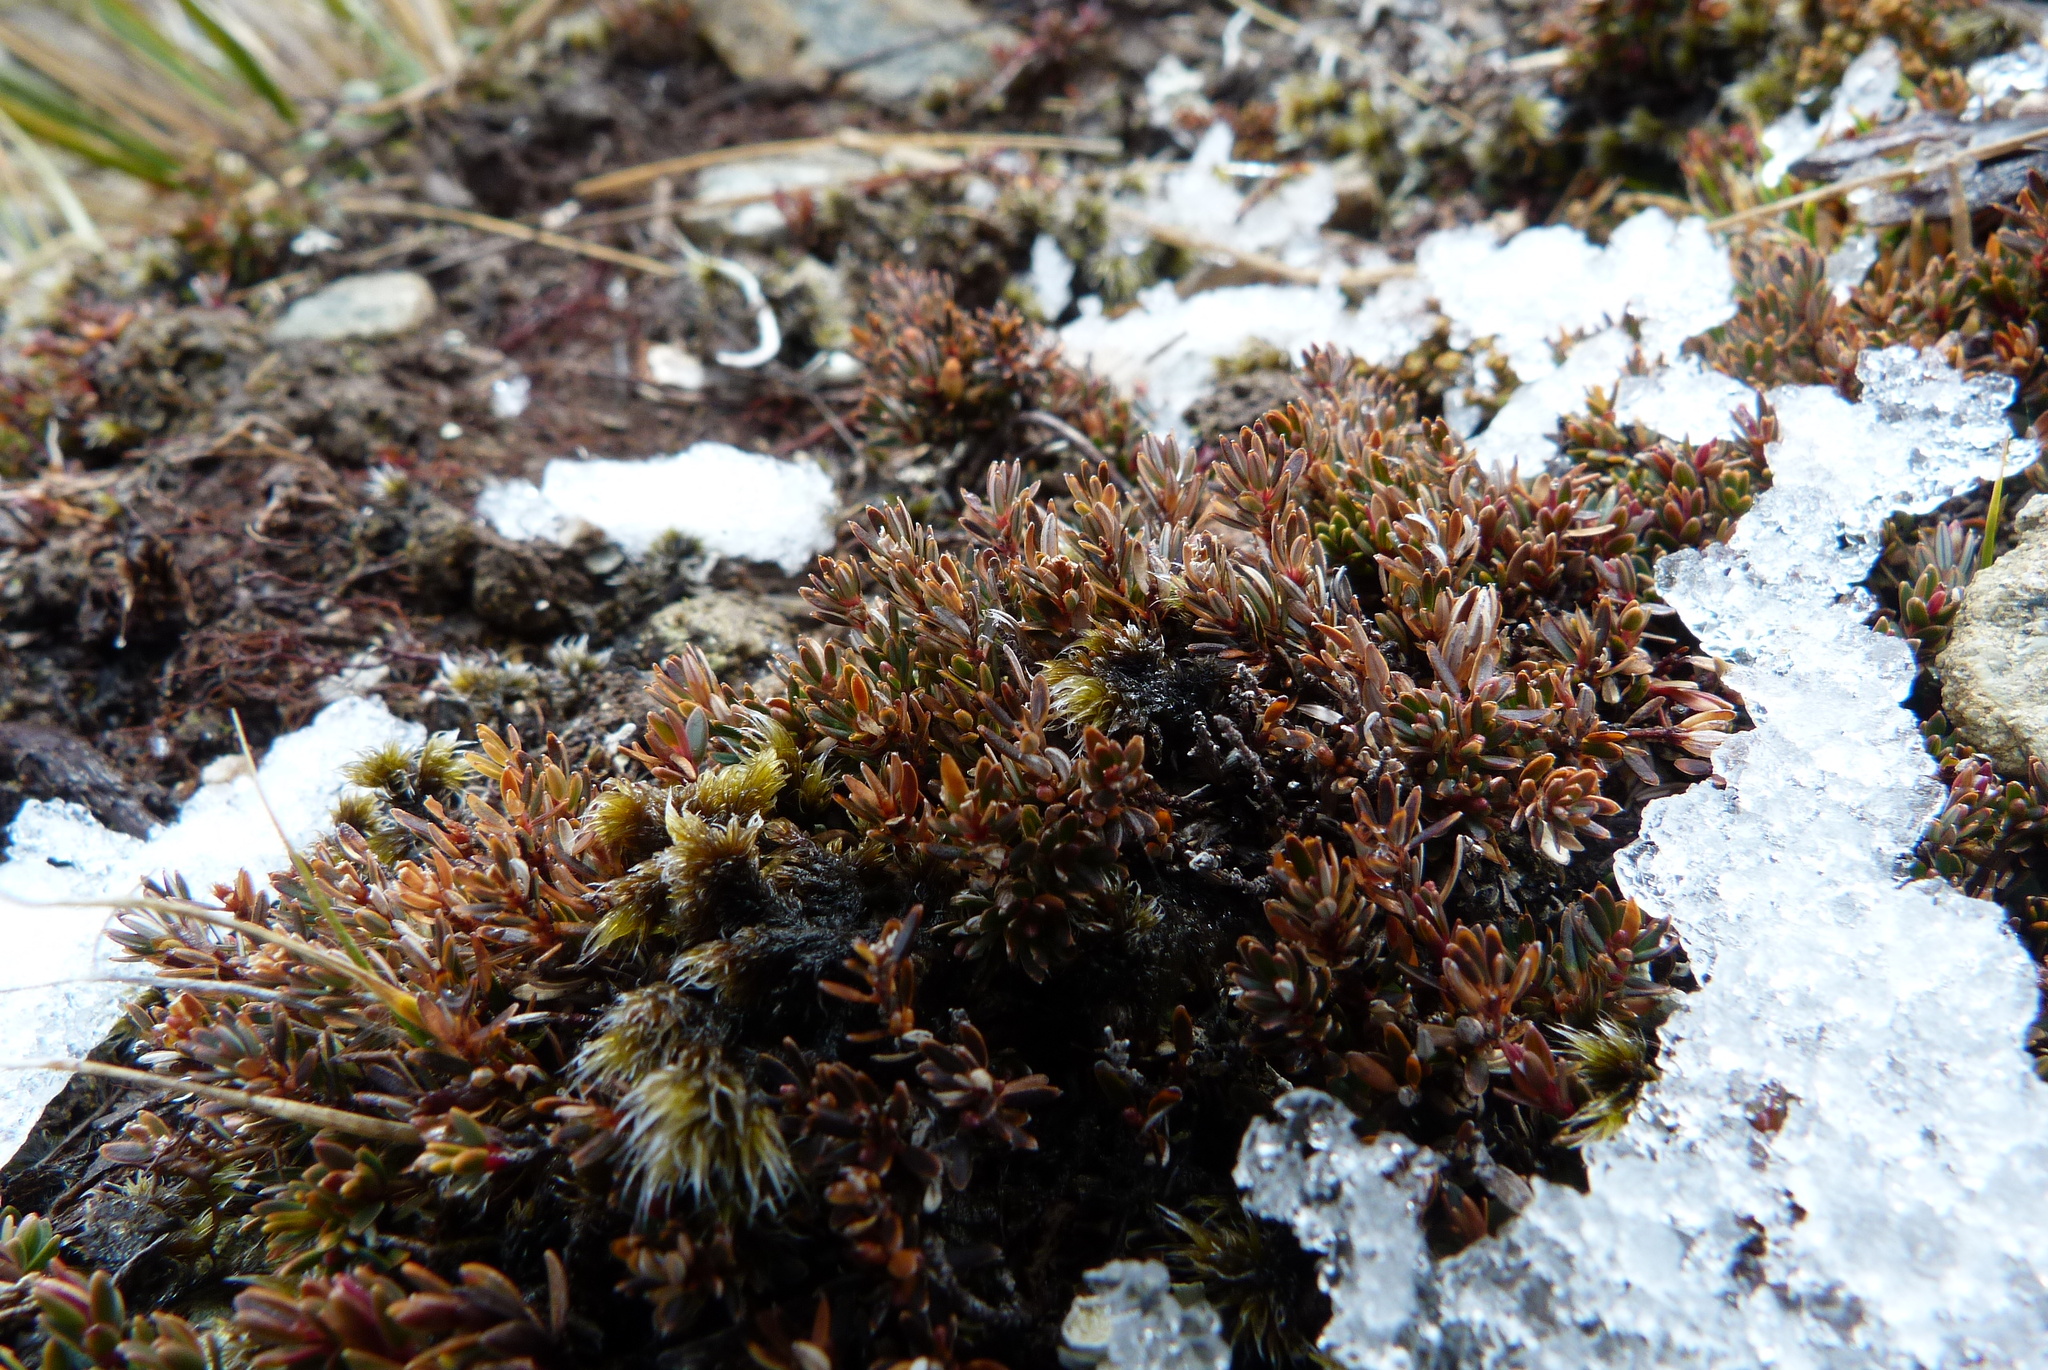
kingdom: Plantae
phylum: Tracheophyta
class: Magnoliopsida
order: Ericales
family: Ericaceae
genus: Montitega
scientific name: Montitega dealbata
